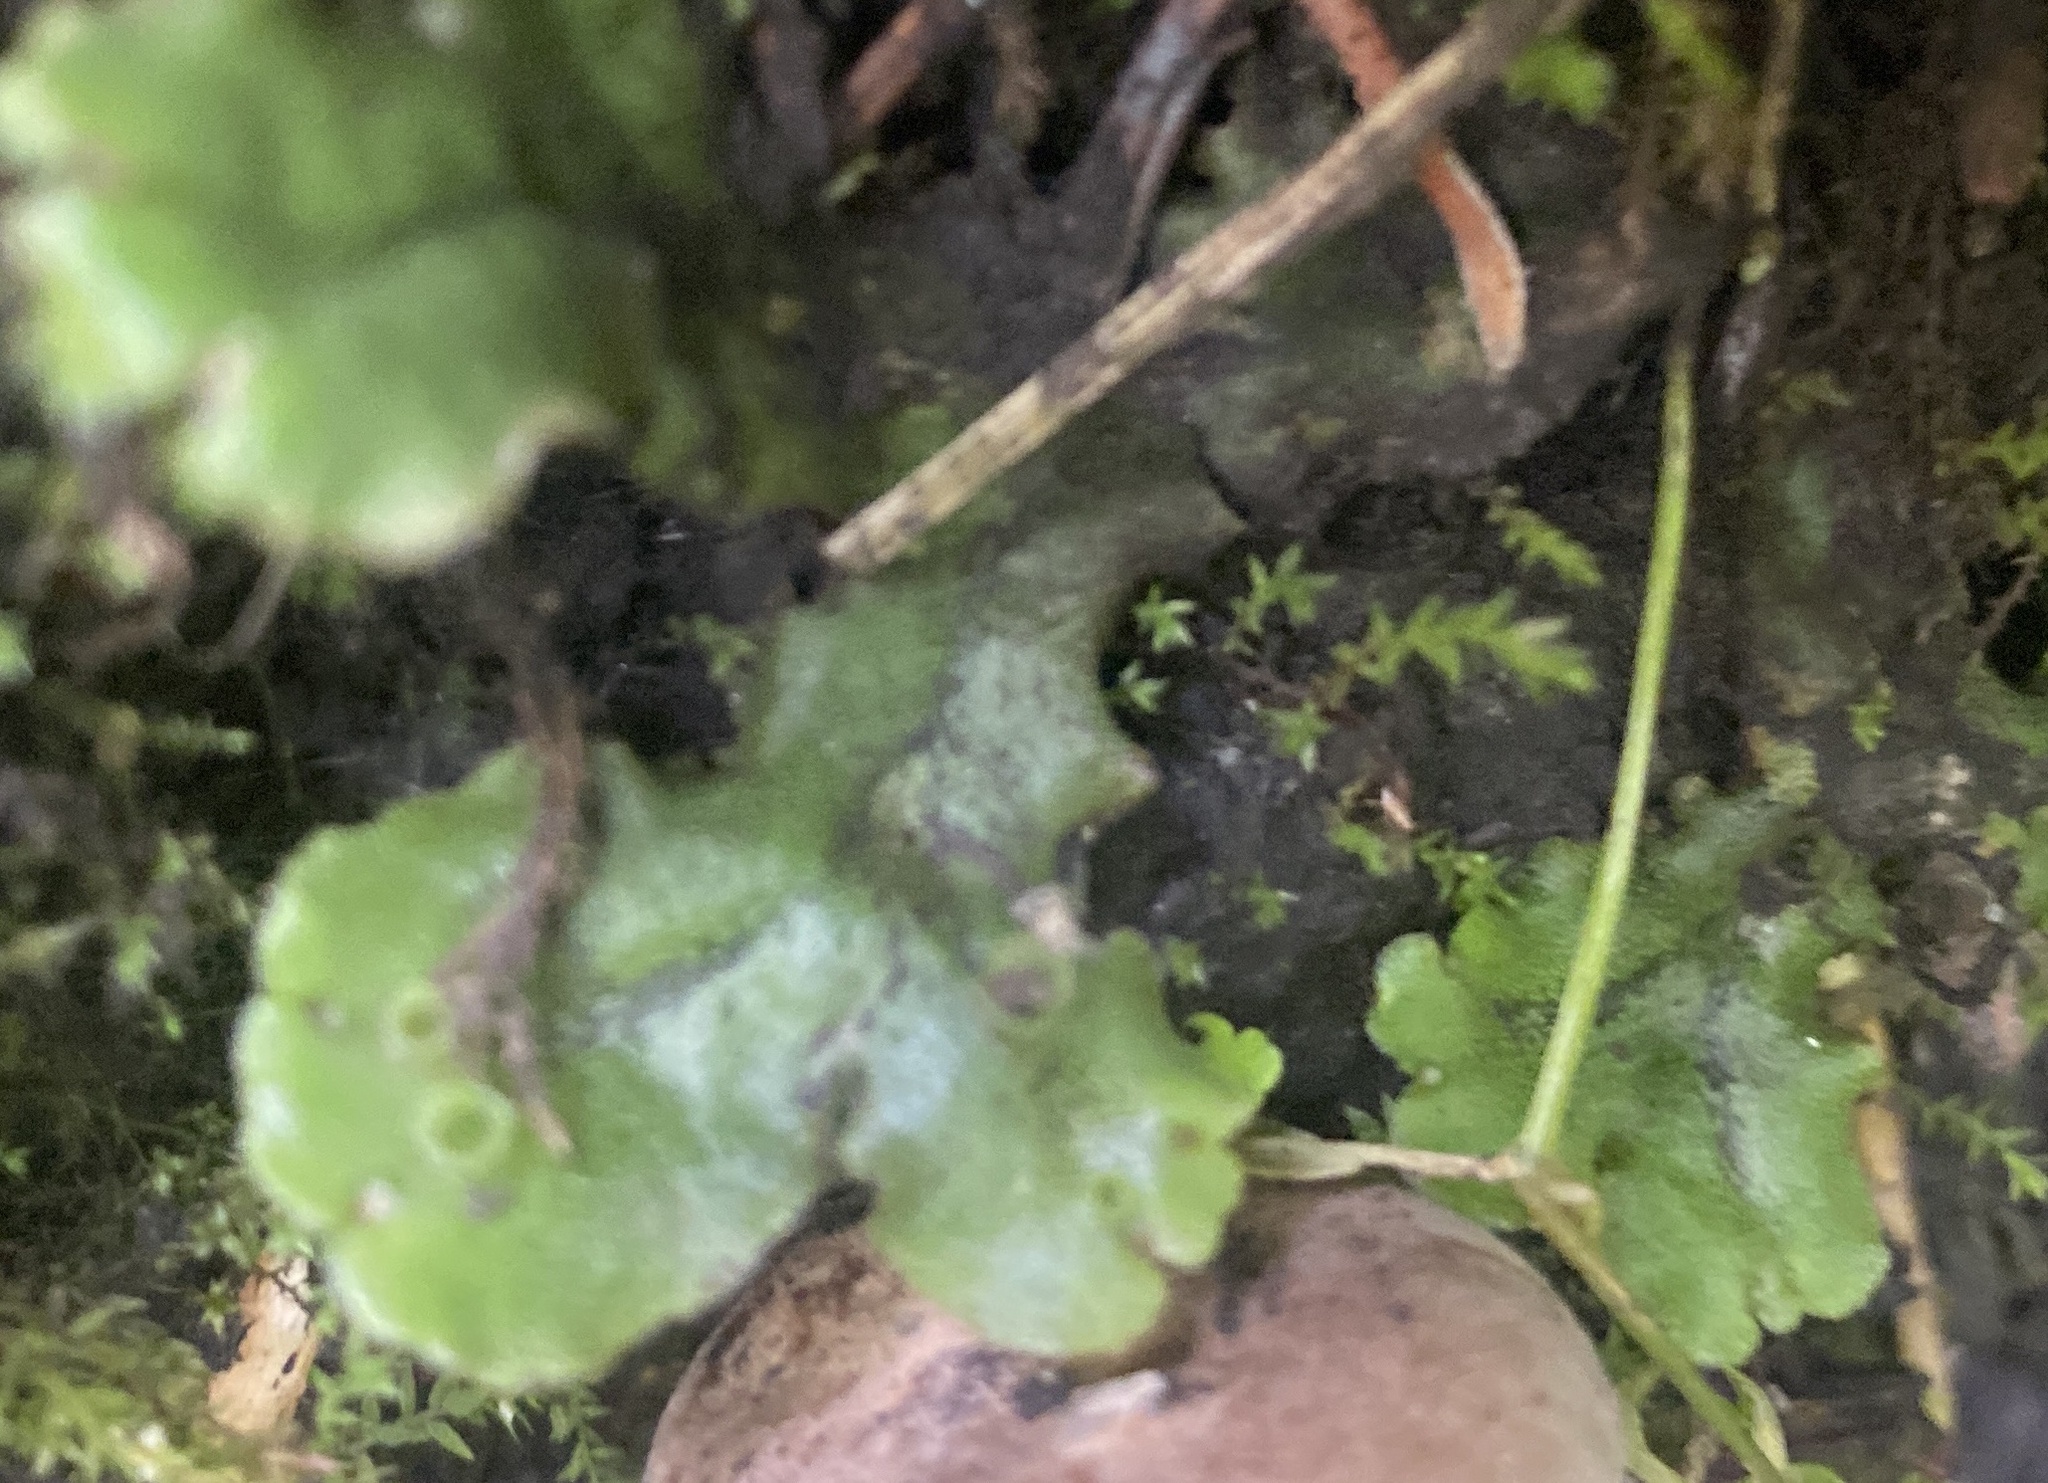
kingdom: Plantae
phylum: Marchantiophyta
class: Marchantiopsida
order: Marchantiales
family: Marchantiaceae
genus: Marchantia
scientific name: Marchantia polymorpha
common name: Common liverwort
